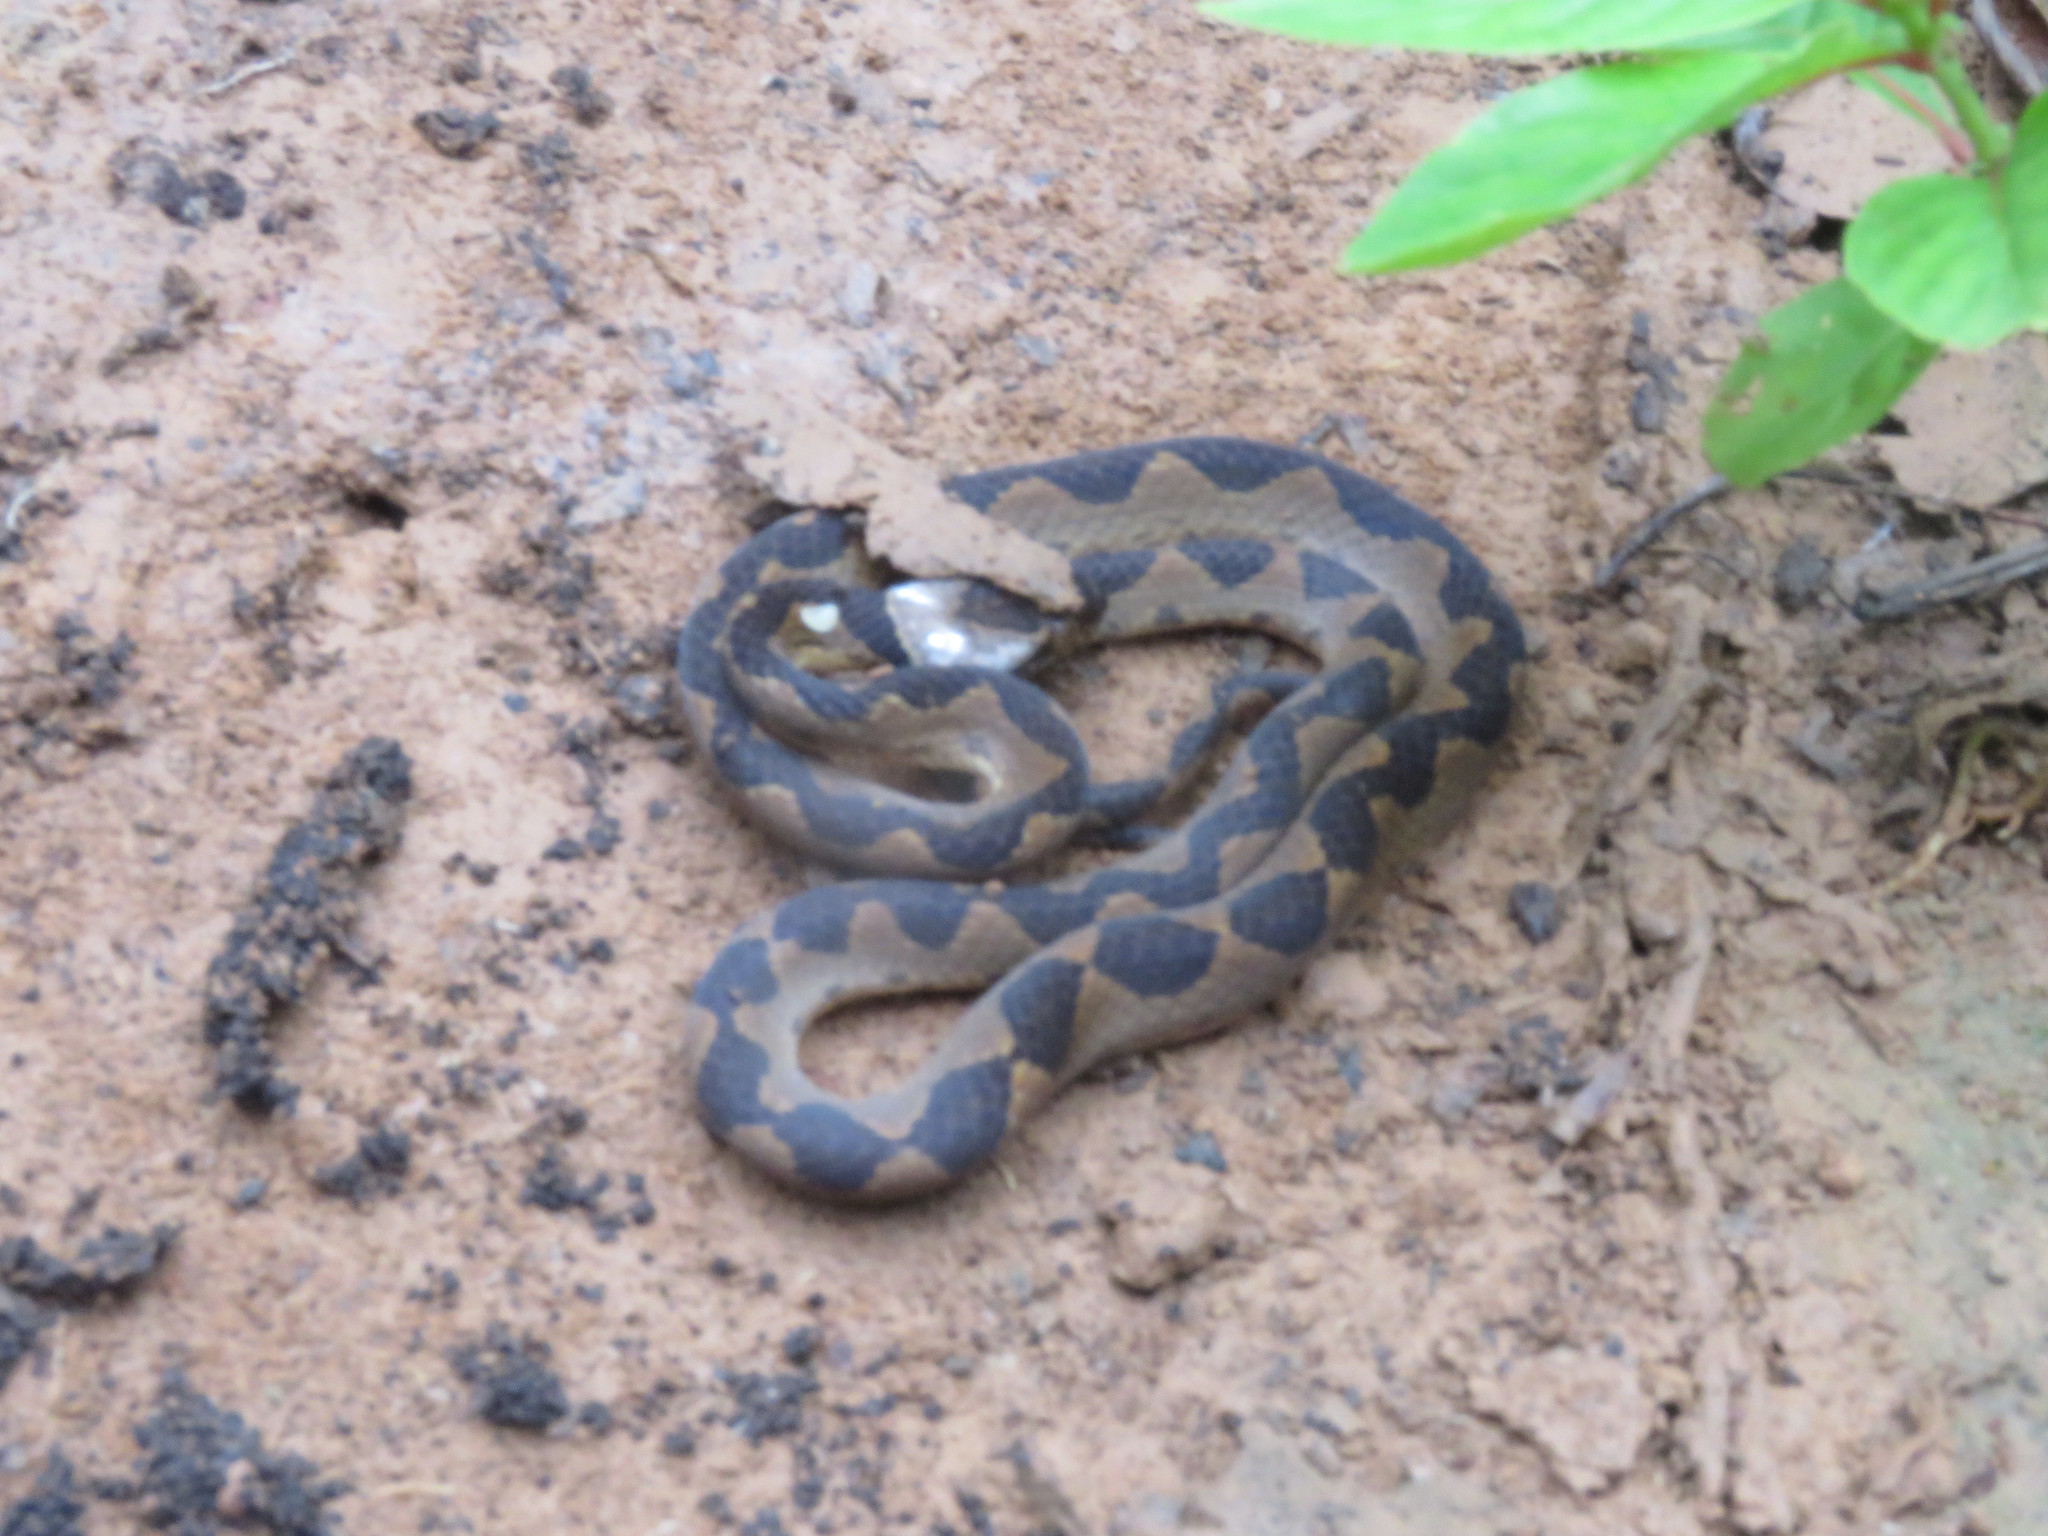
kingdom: Animalia
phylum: Chordata
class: Squamata
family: Colubridae
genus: Leptodeira
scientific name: Leptodeira annulata
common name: Banded cat-eyed snake
